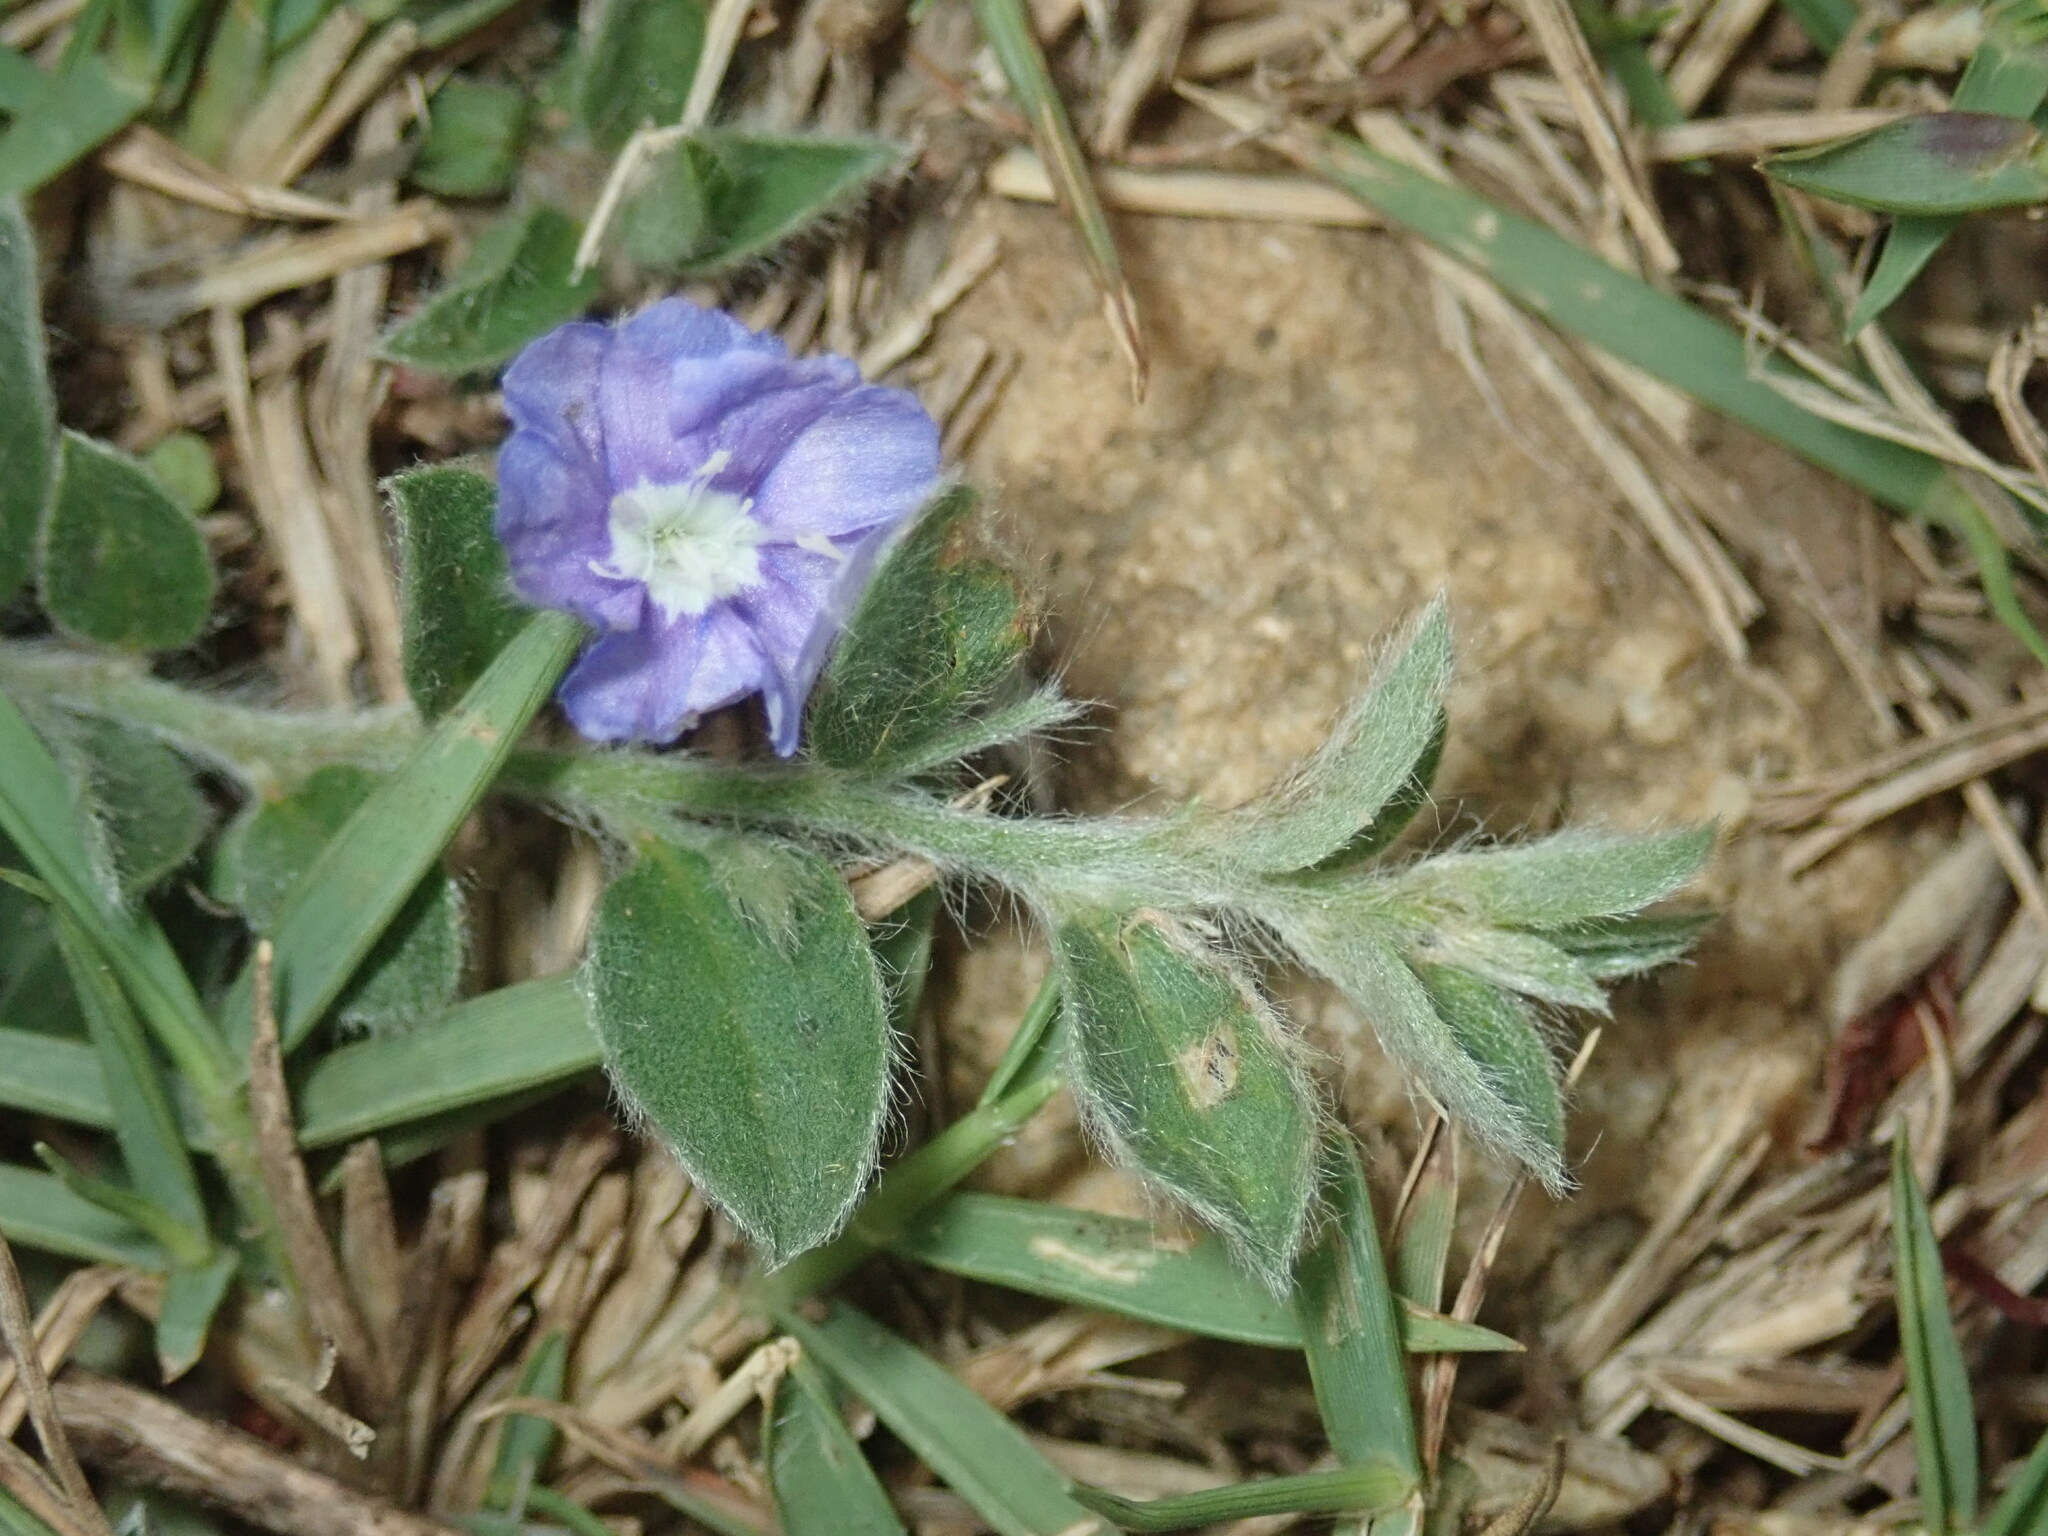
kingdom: Plantae
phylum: Tracheophyta
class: Magnoliopsida
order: Solanales
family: Convolvulaceae
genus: Evolvulus
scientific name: Evolvulus alsinoides
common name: Slender dwarf morning-glory
